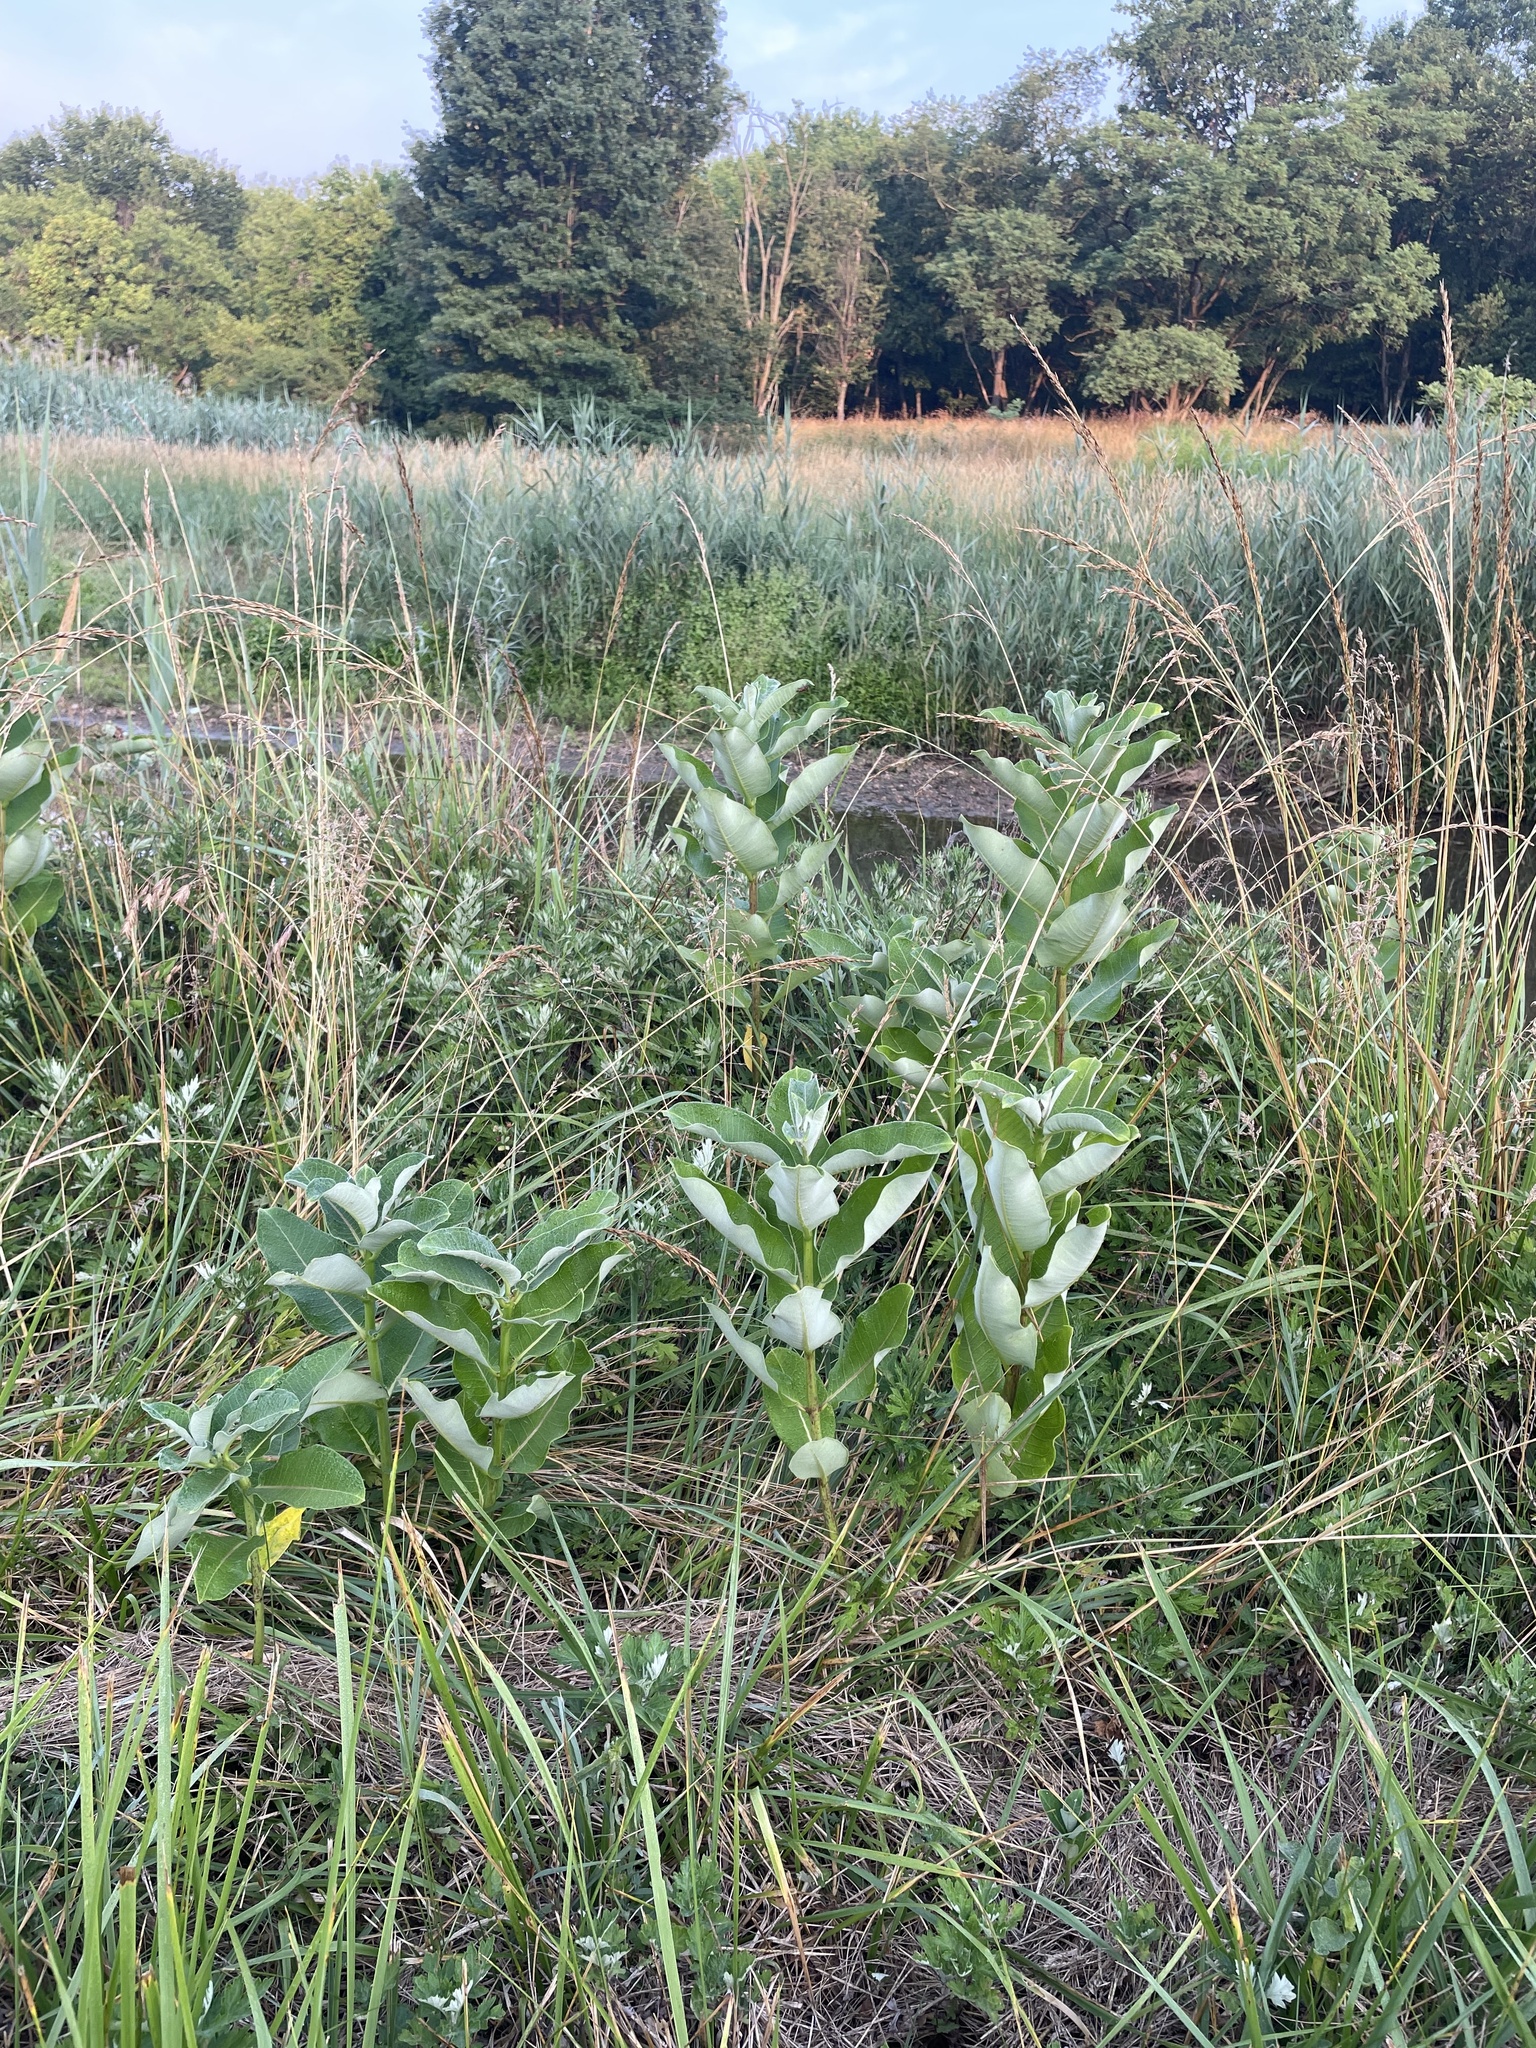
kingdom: Plantae
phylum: Tracheophyta
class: Magnoliopsida
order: Gentianales
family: Apocynaceae
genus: Asclepias
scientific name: Asclepias syriaca
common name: Common milkweed
